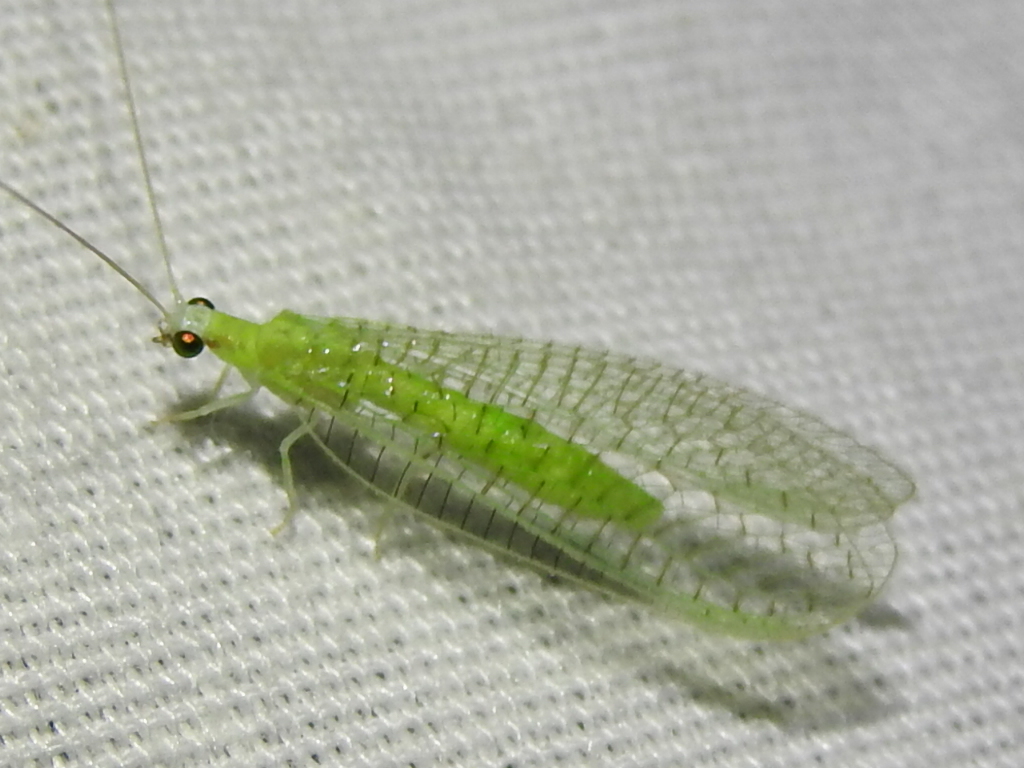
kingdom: Animalia
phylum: Arthropoda
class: Insecta
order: Neuroptera
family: Chrysopidae
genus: Chrysopa
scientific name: Chrysopa nigricornis
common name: Black-horned green lacewing
